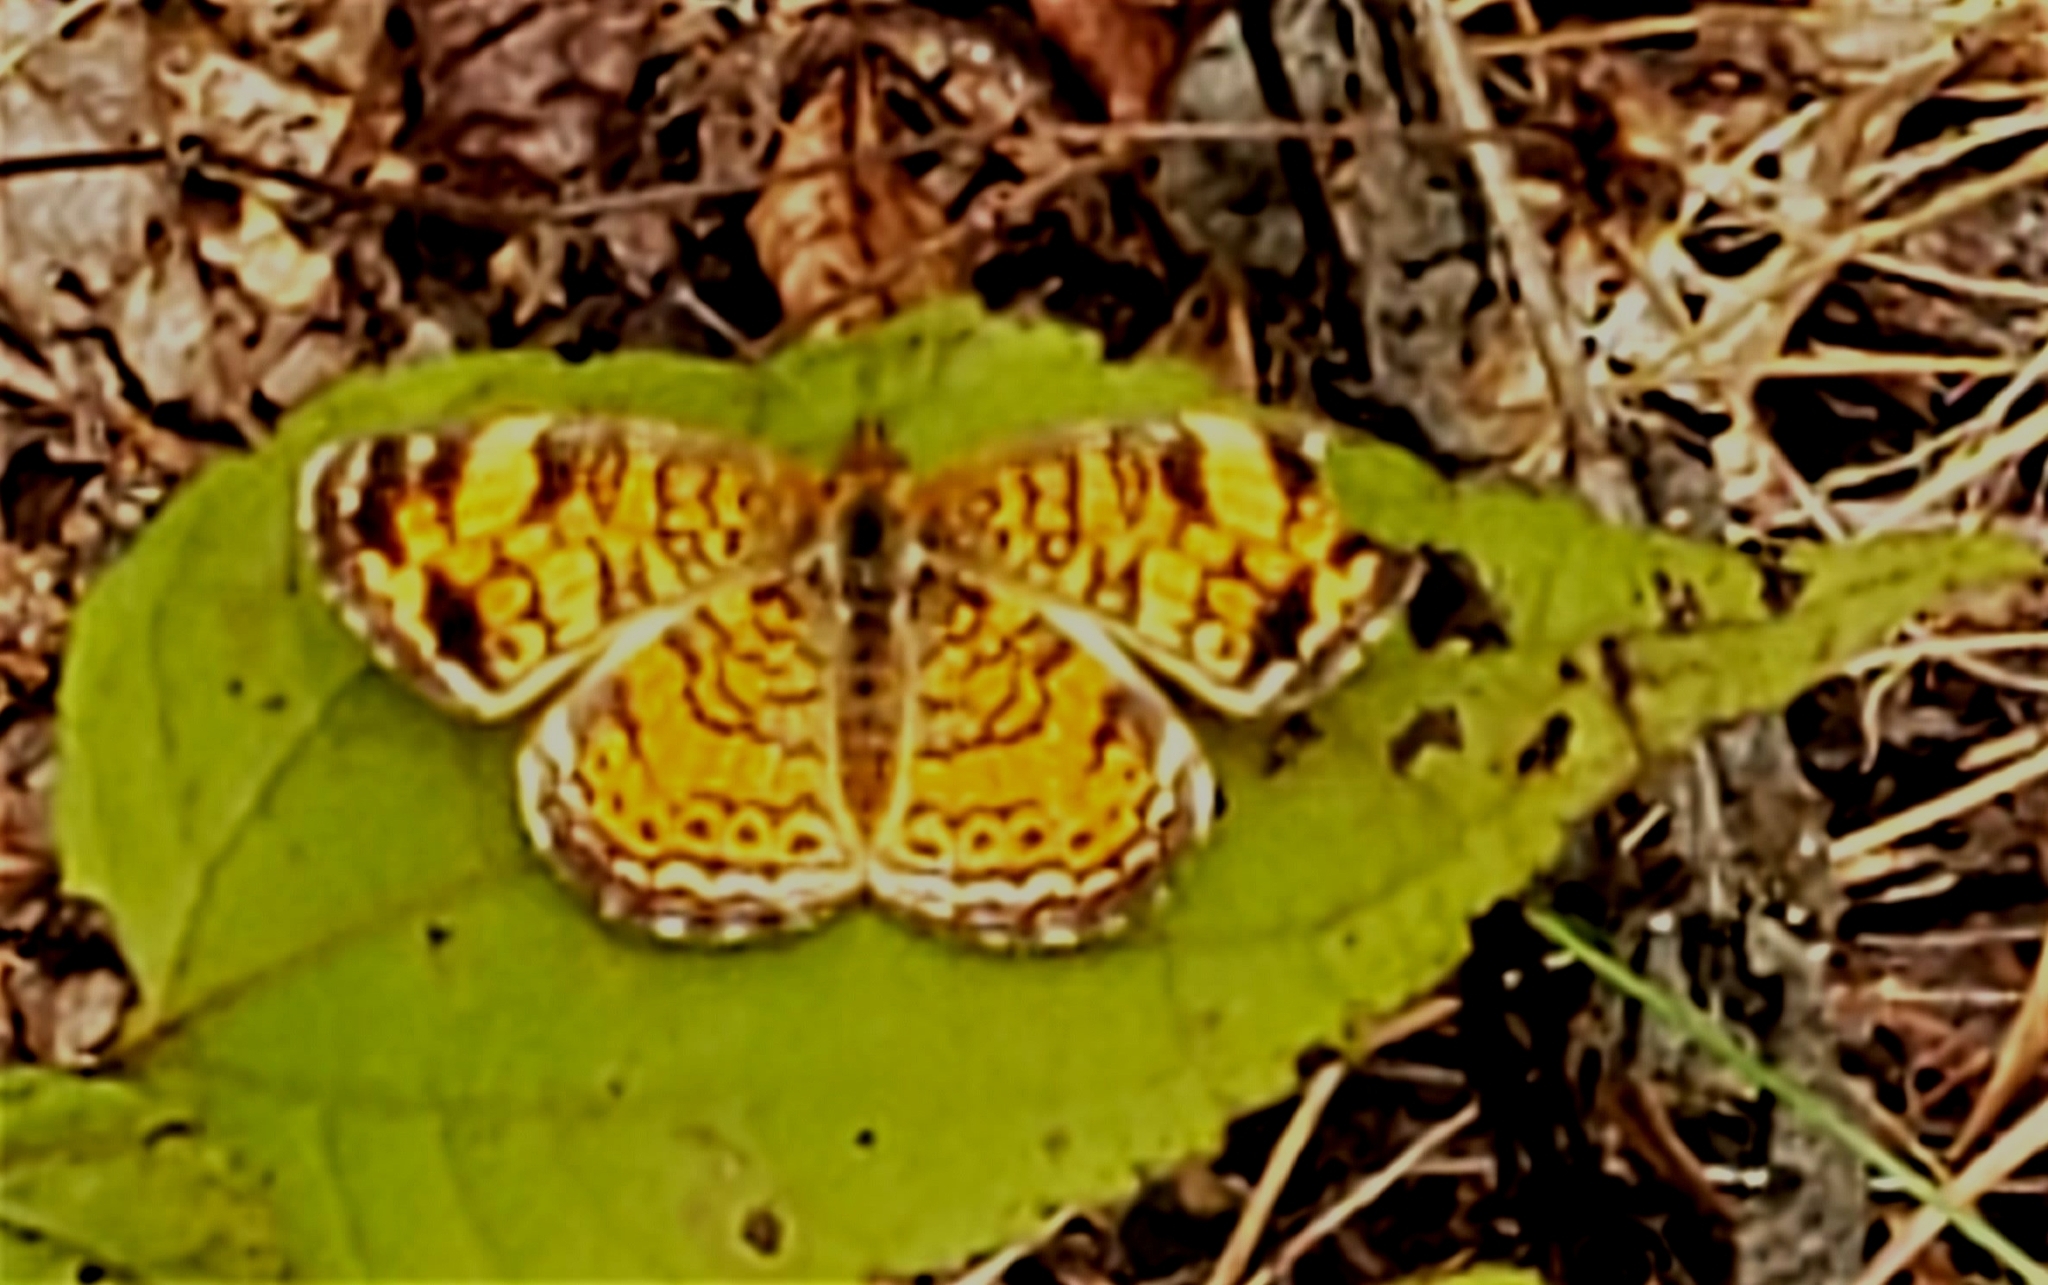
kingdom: Animalia
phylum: Arthropoda
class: Insecta
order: Lepidoptera
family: Nymphalidae
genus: Phyciodes
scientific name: Phyciodes tharos
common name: Pearl crescent
